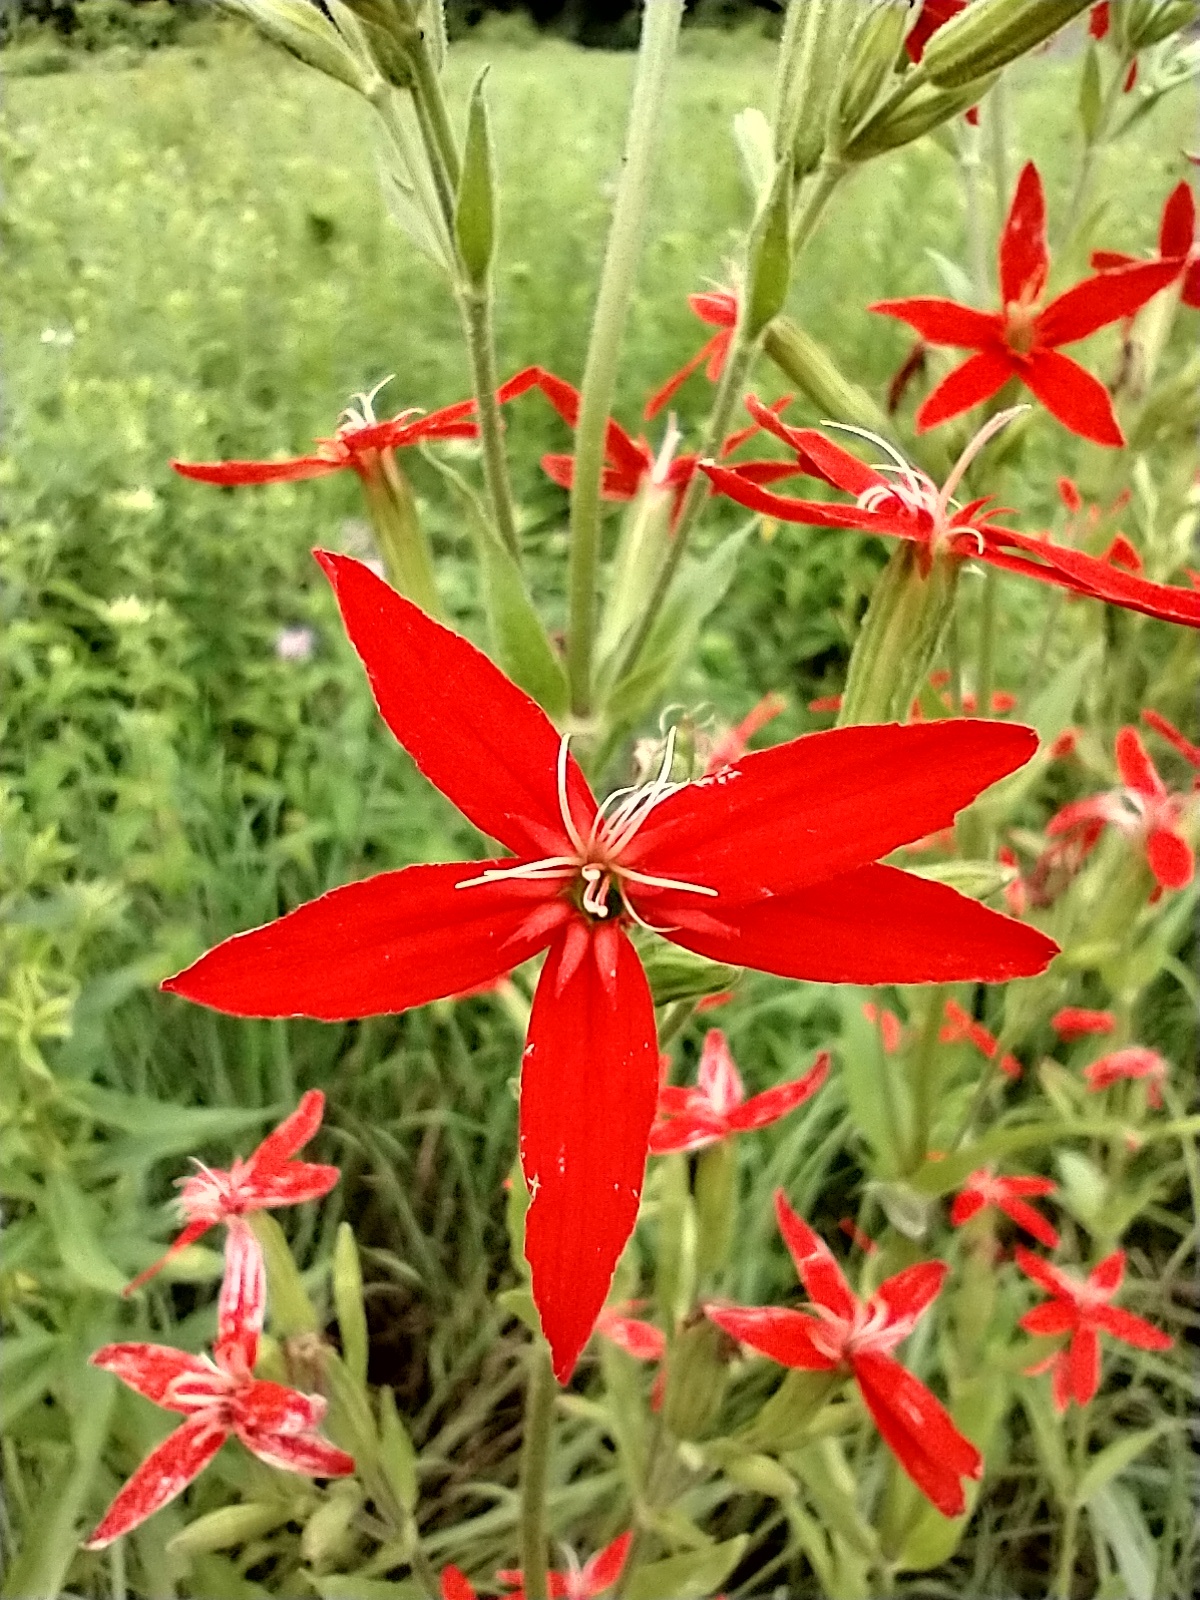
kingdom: Plantae
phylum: Tracheophyta
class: Magnoliopsida
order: Caryophyllales
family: Caryophyllaceae
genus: Silene
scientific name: Silene regia
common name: Royal catchfly
